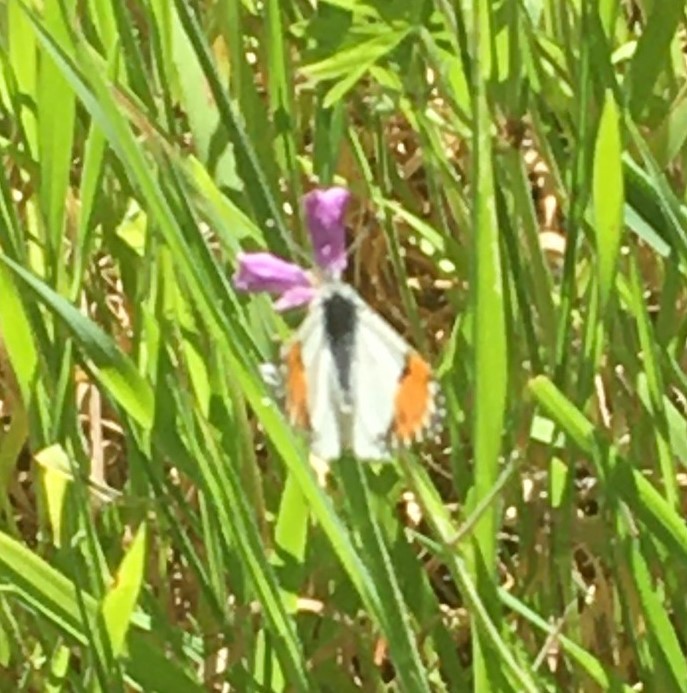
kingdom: Animalia
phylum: Arthropoda
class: Insecta
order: Lepidoptera
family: Pieridae
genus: Anthocharis
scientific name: Anthocharis sara
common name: Sara's orangetip
